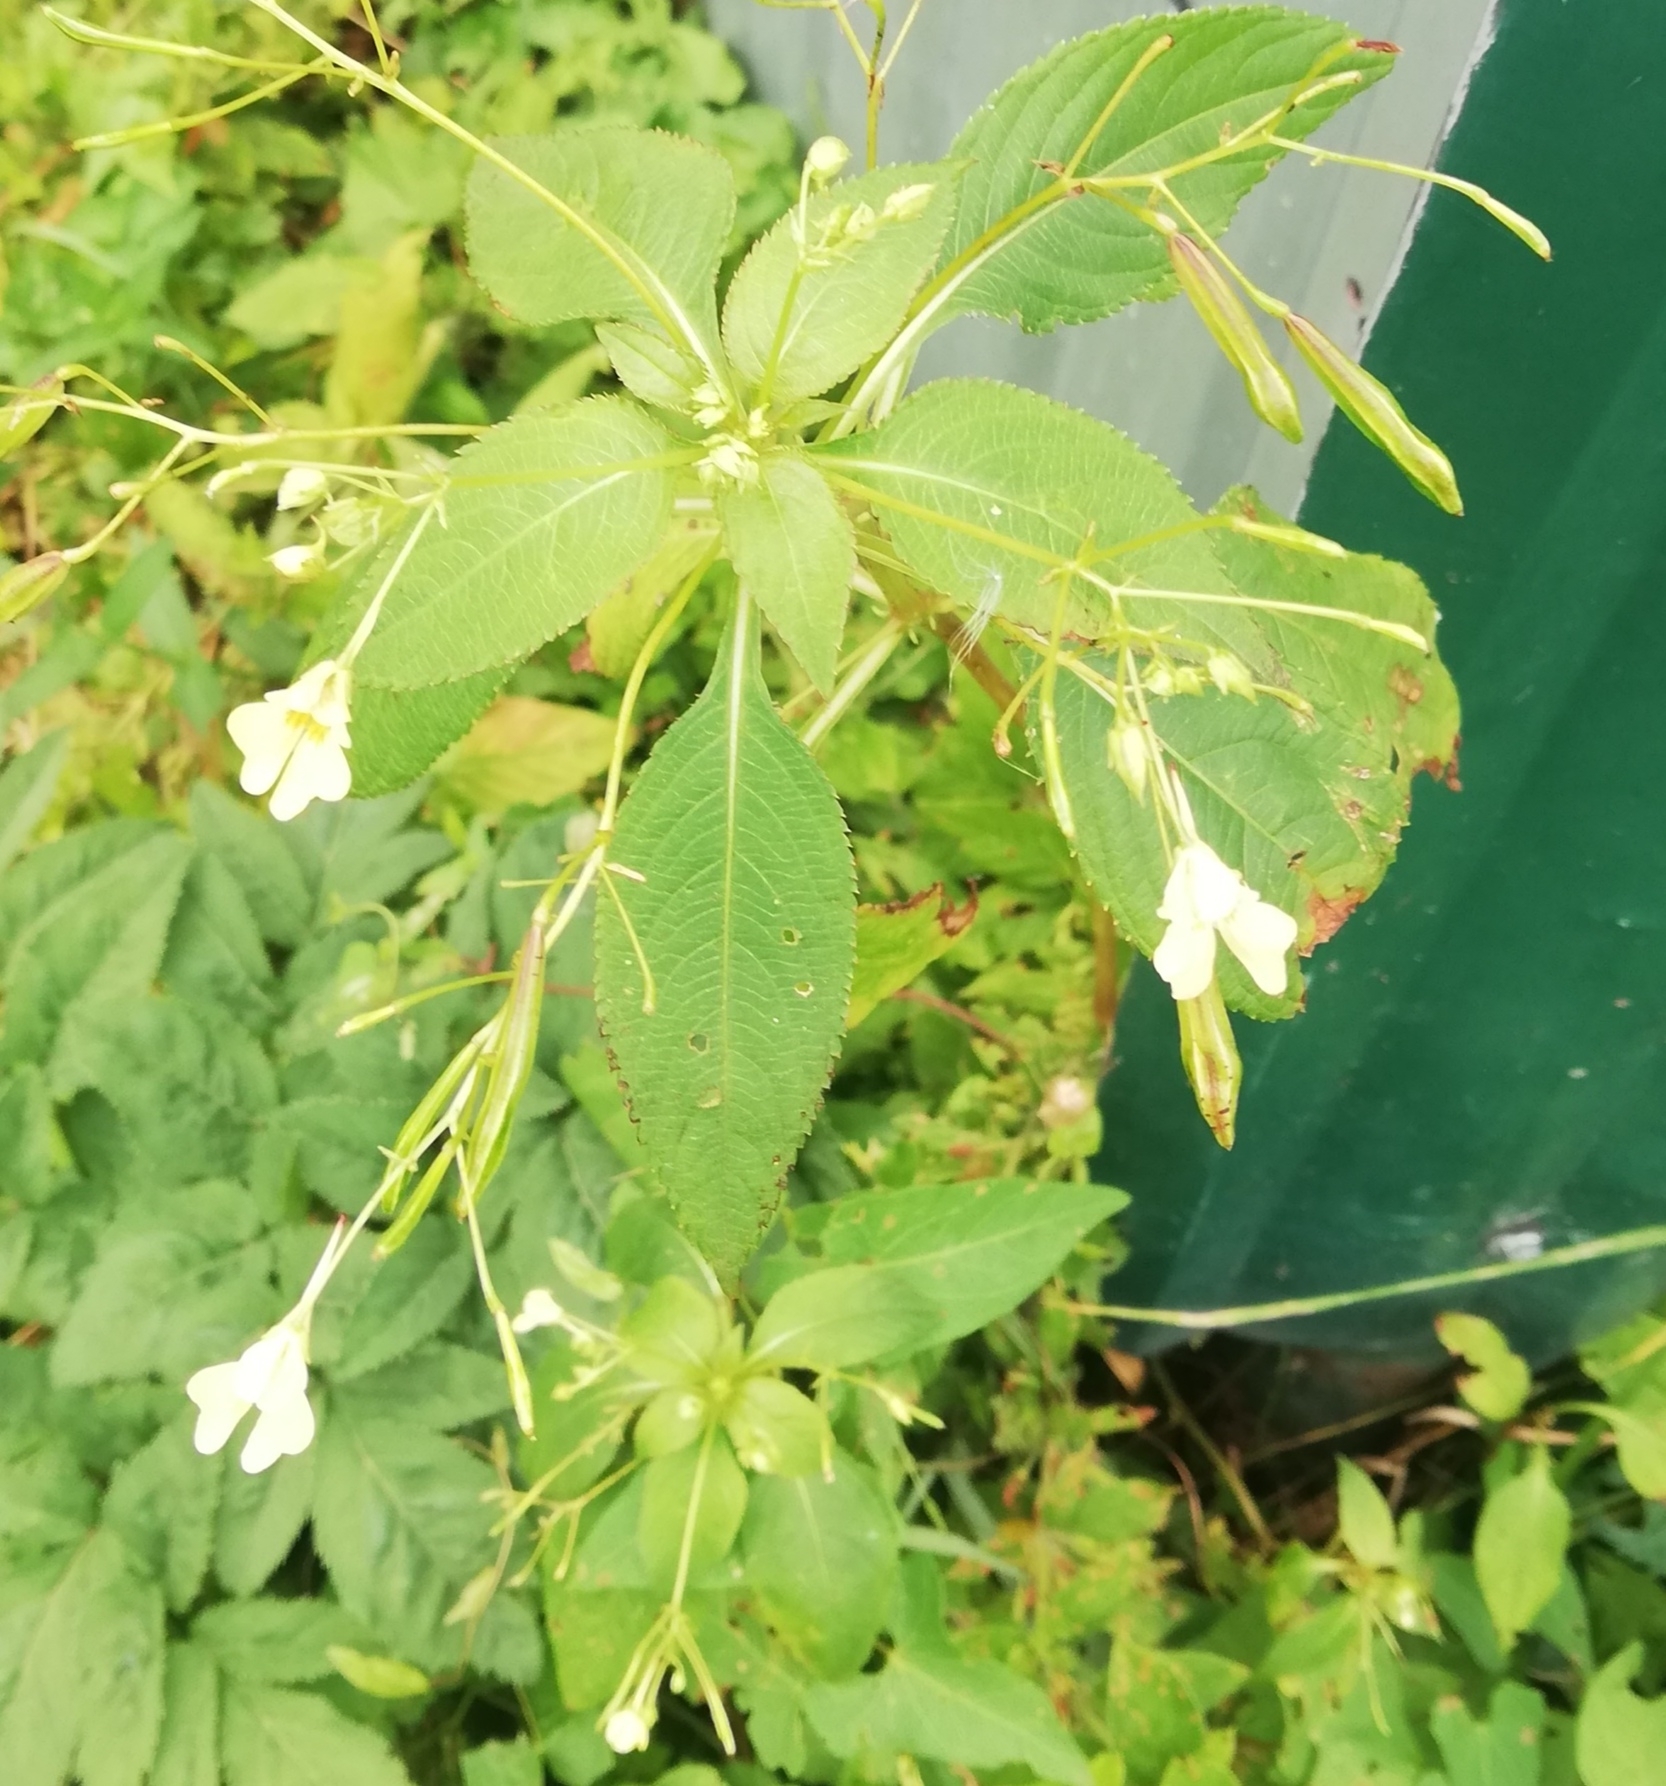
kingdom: Plantae
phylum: Tracheophyta
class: Magnoliopsida
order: Ericales
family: Balsaminaceae
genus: Impatiens
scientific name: Impatiens parviflora
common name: Small balsam
